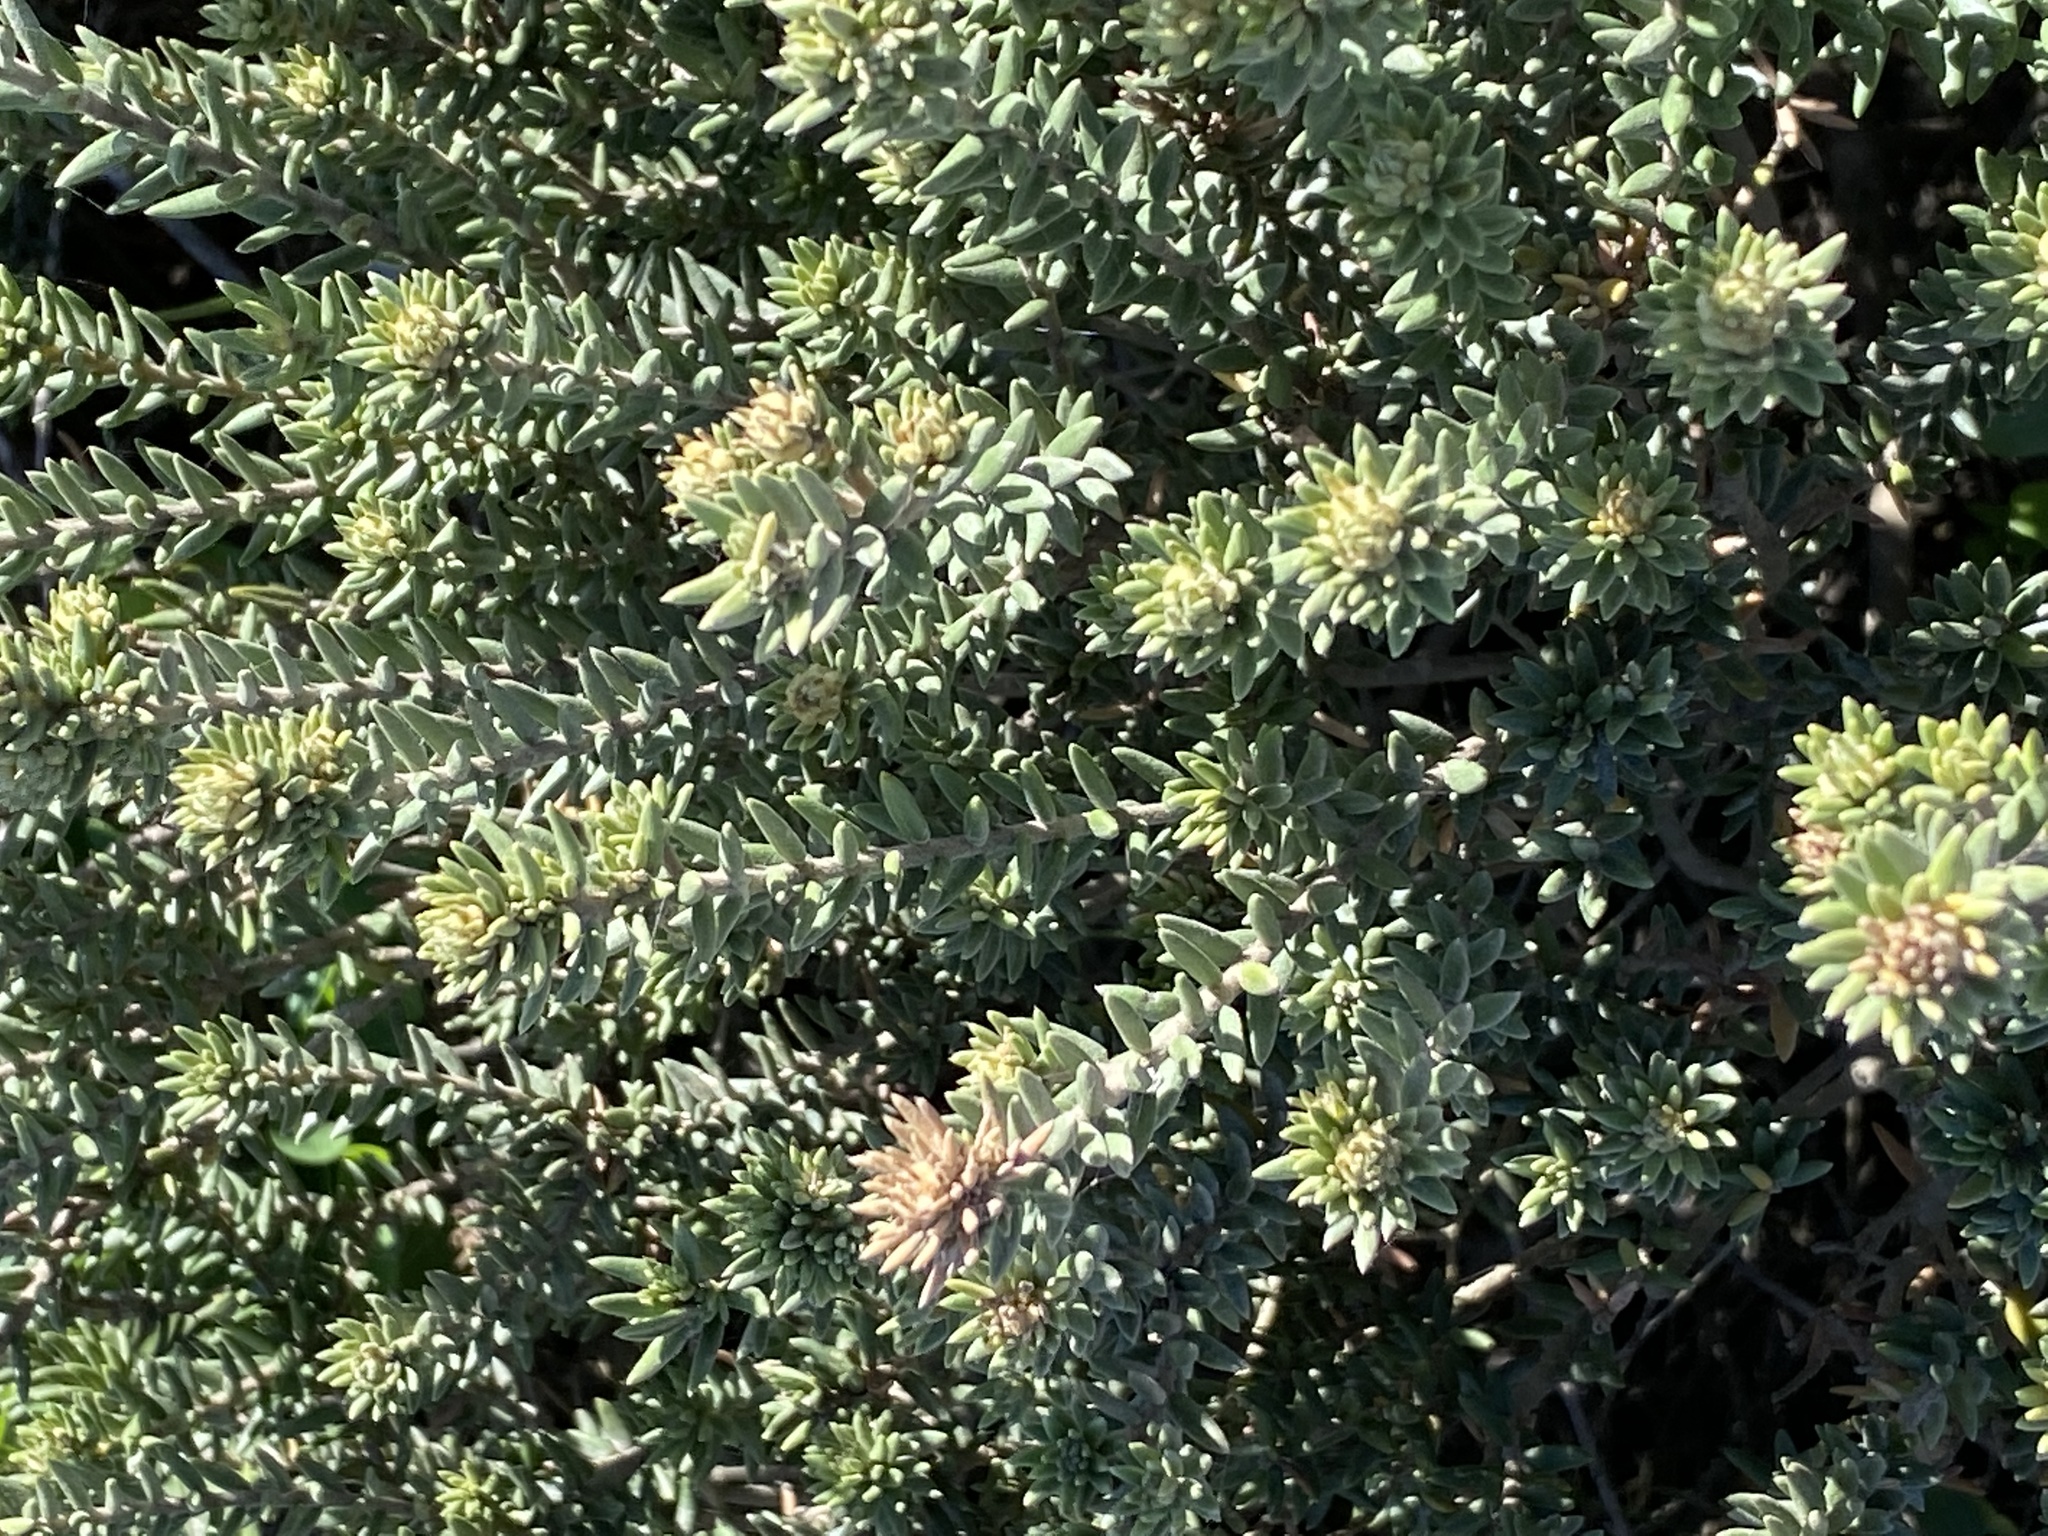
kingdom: Plantae
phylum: Tracheophyta
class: Magnoliopsida
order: Rosales
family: Rhamnaceae
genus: Phylica
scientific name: Phylica litoralis
